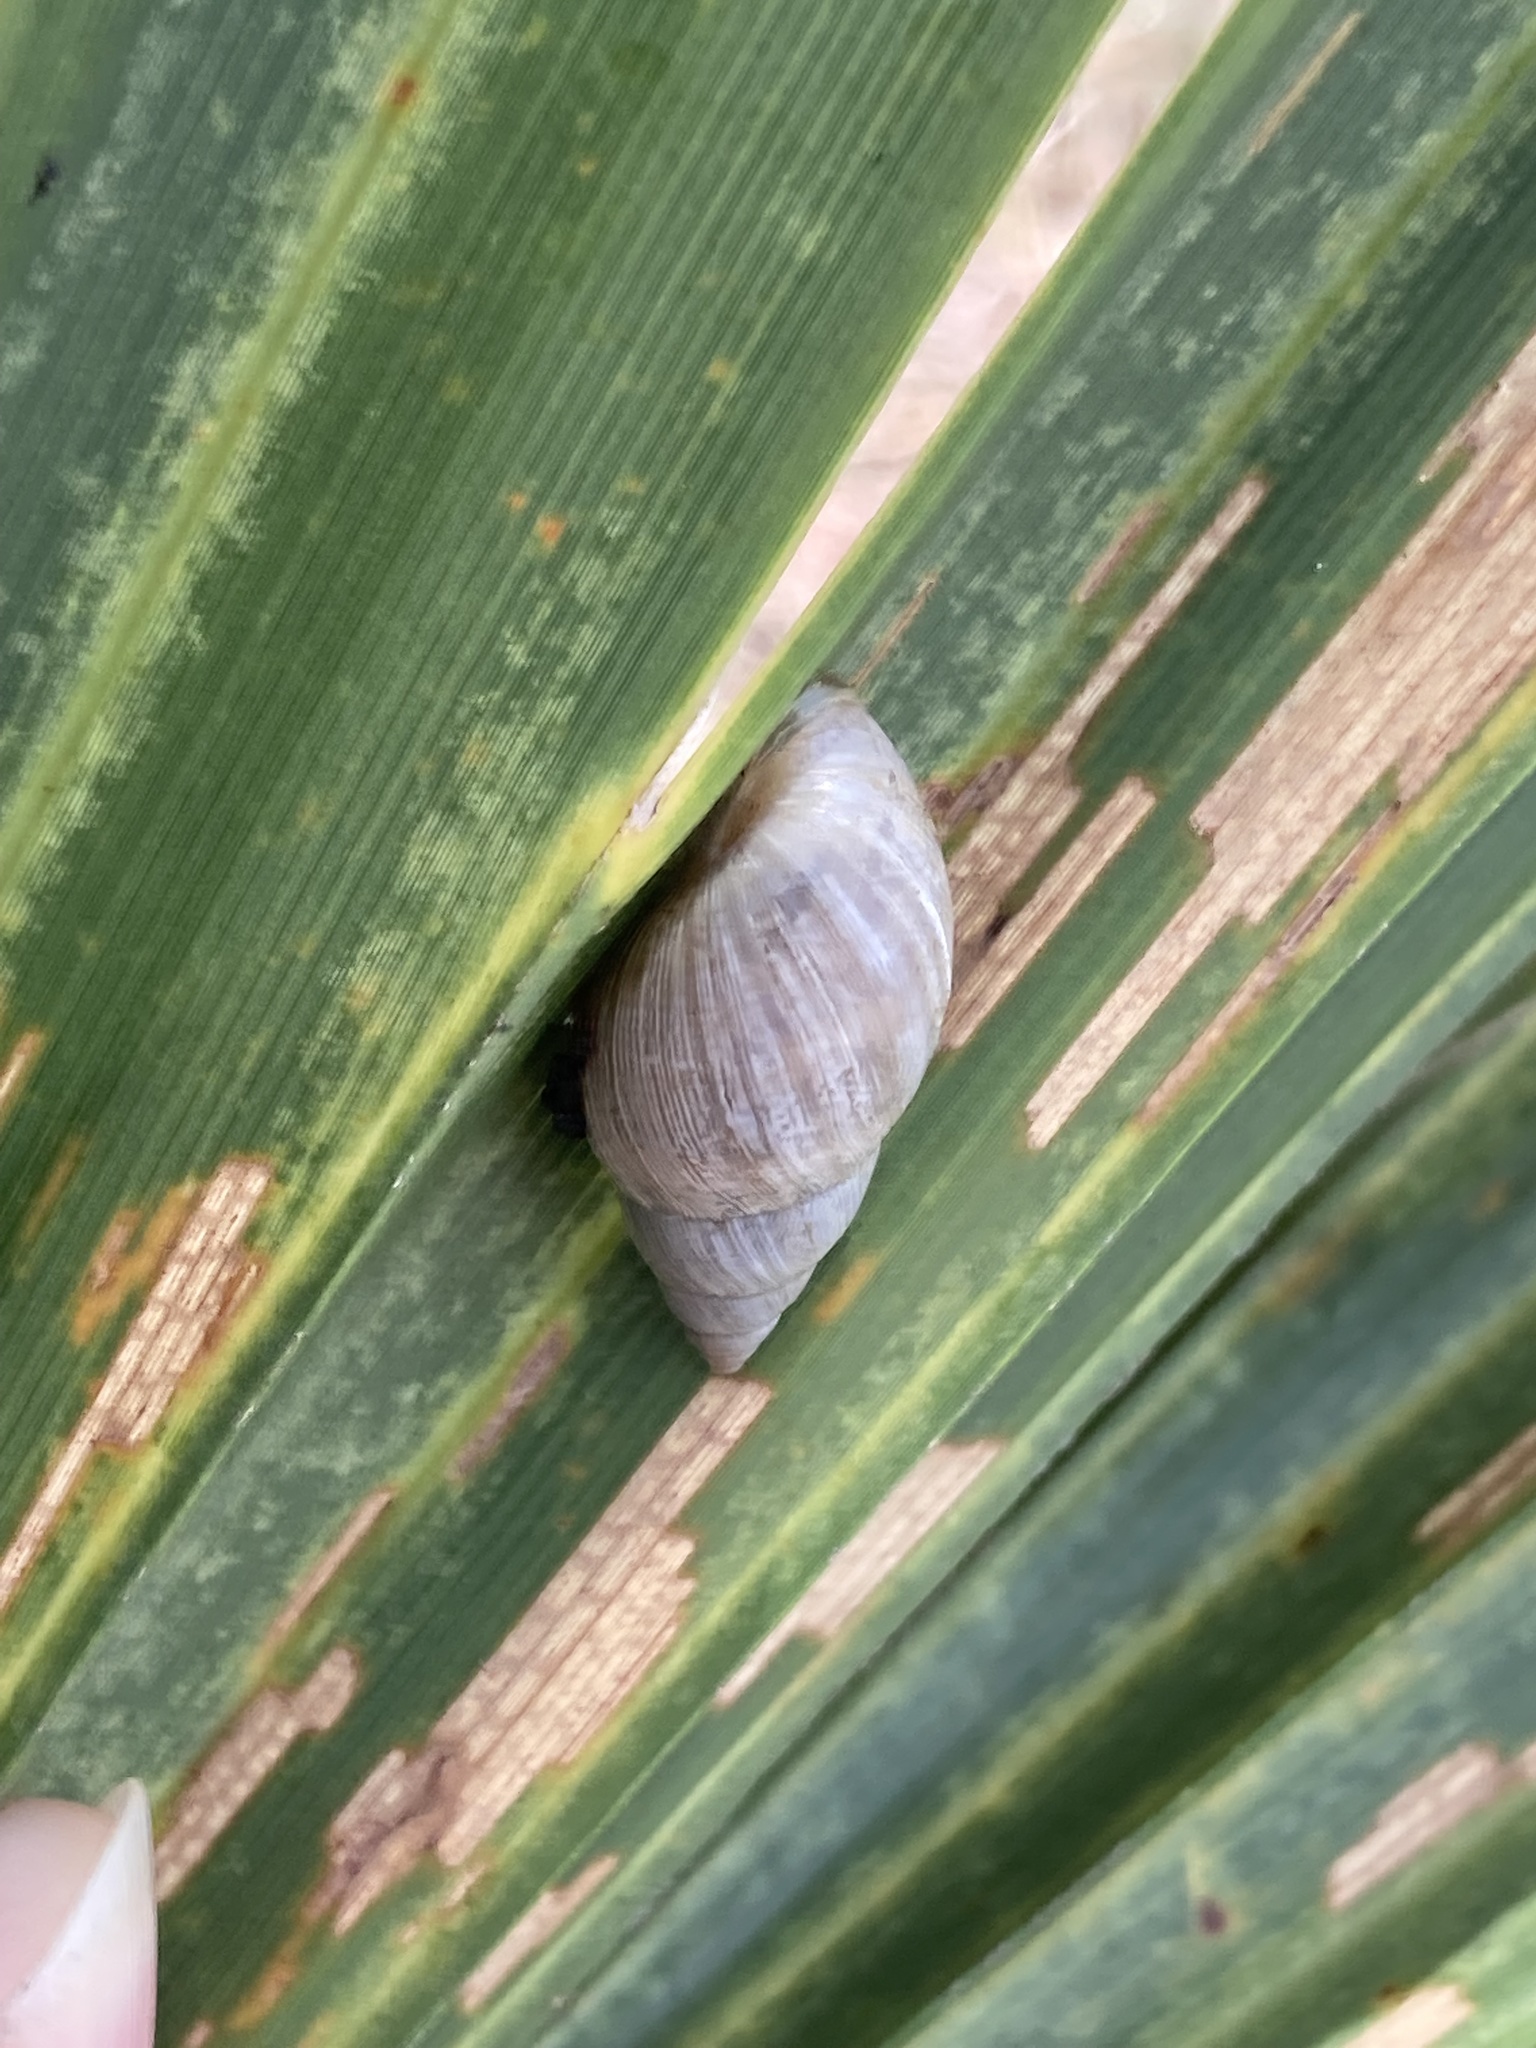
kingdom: Animalia
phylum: Mollusca
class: Gastropoda
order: Stylommatophora
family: Bulimulidae
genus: Bulimulus
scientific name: Bulimulus bonariensis
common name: Snail
